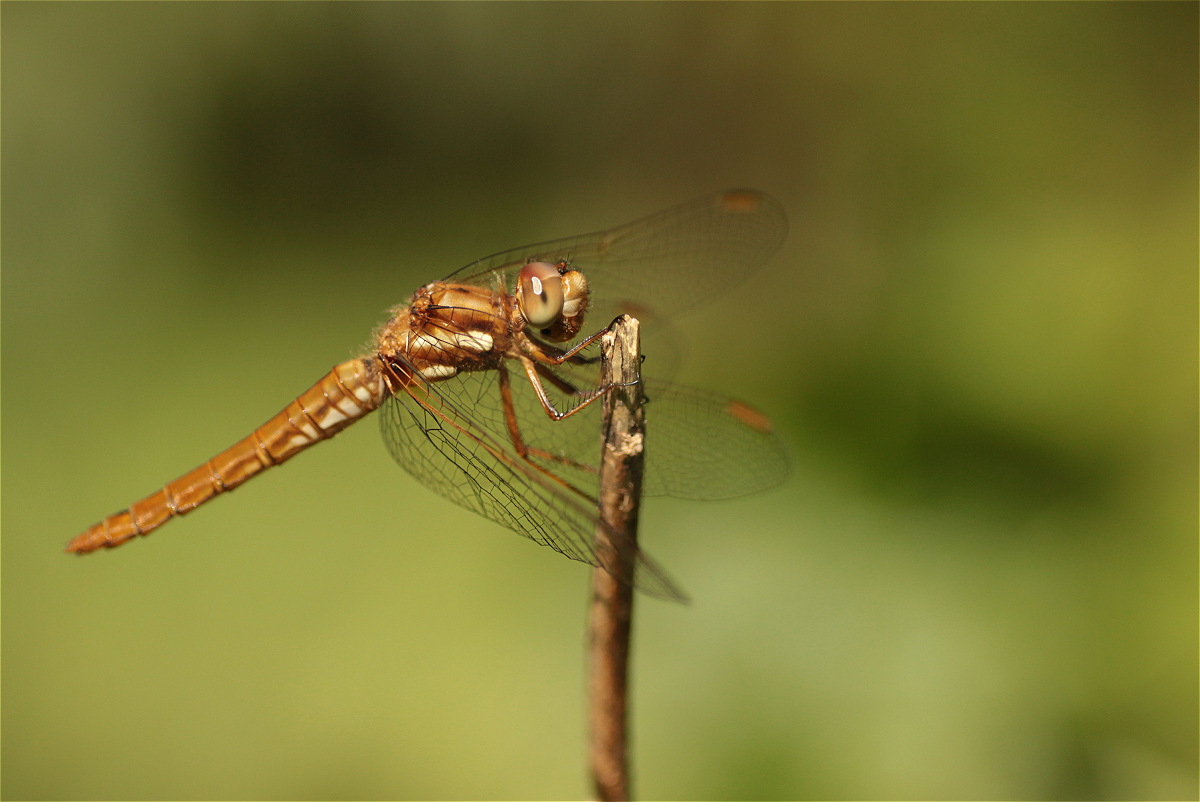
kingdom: Animalia
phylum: Arthropoda
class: Insecta
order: Odonata
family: Libellulidae
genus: Sympetrum
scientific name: Sympetrum gilvum
